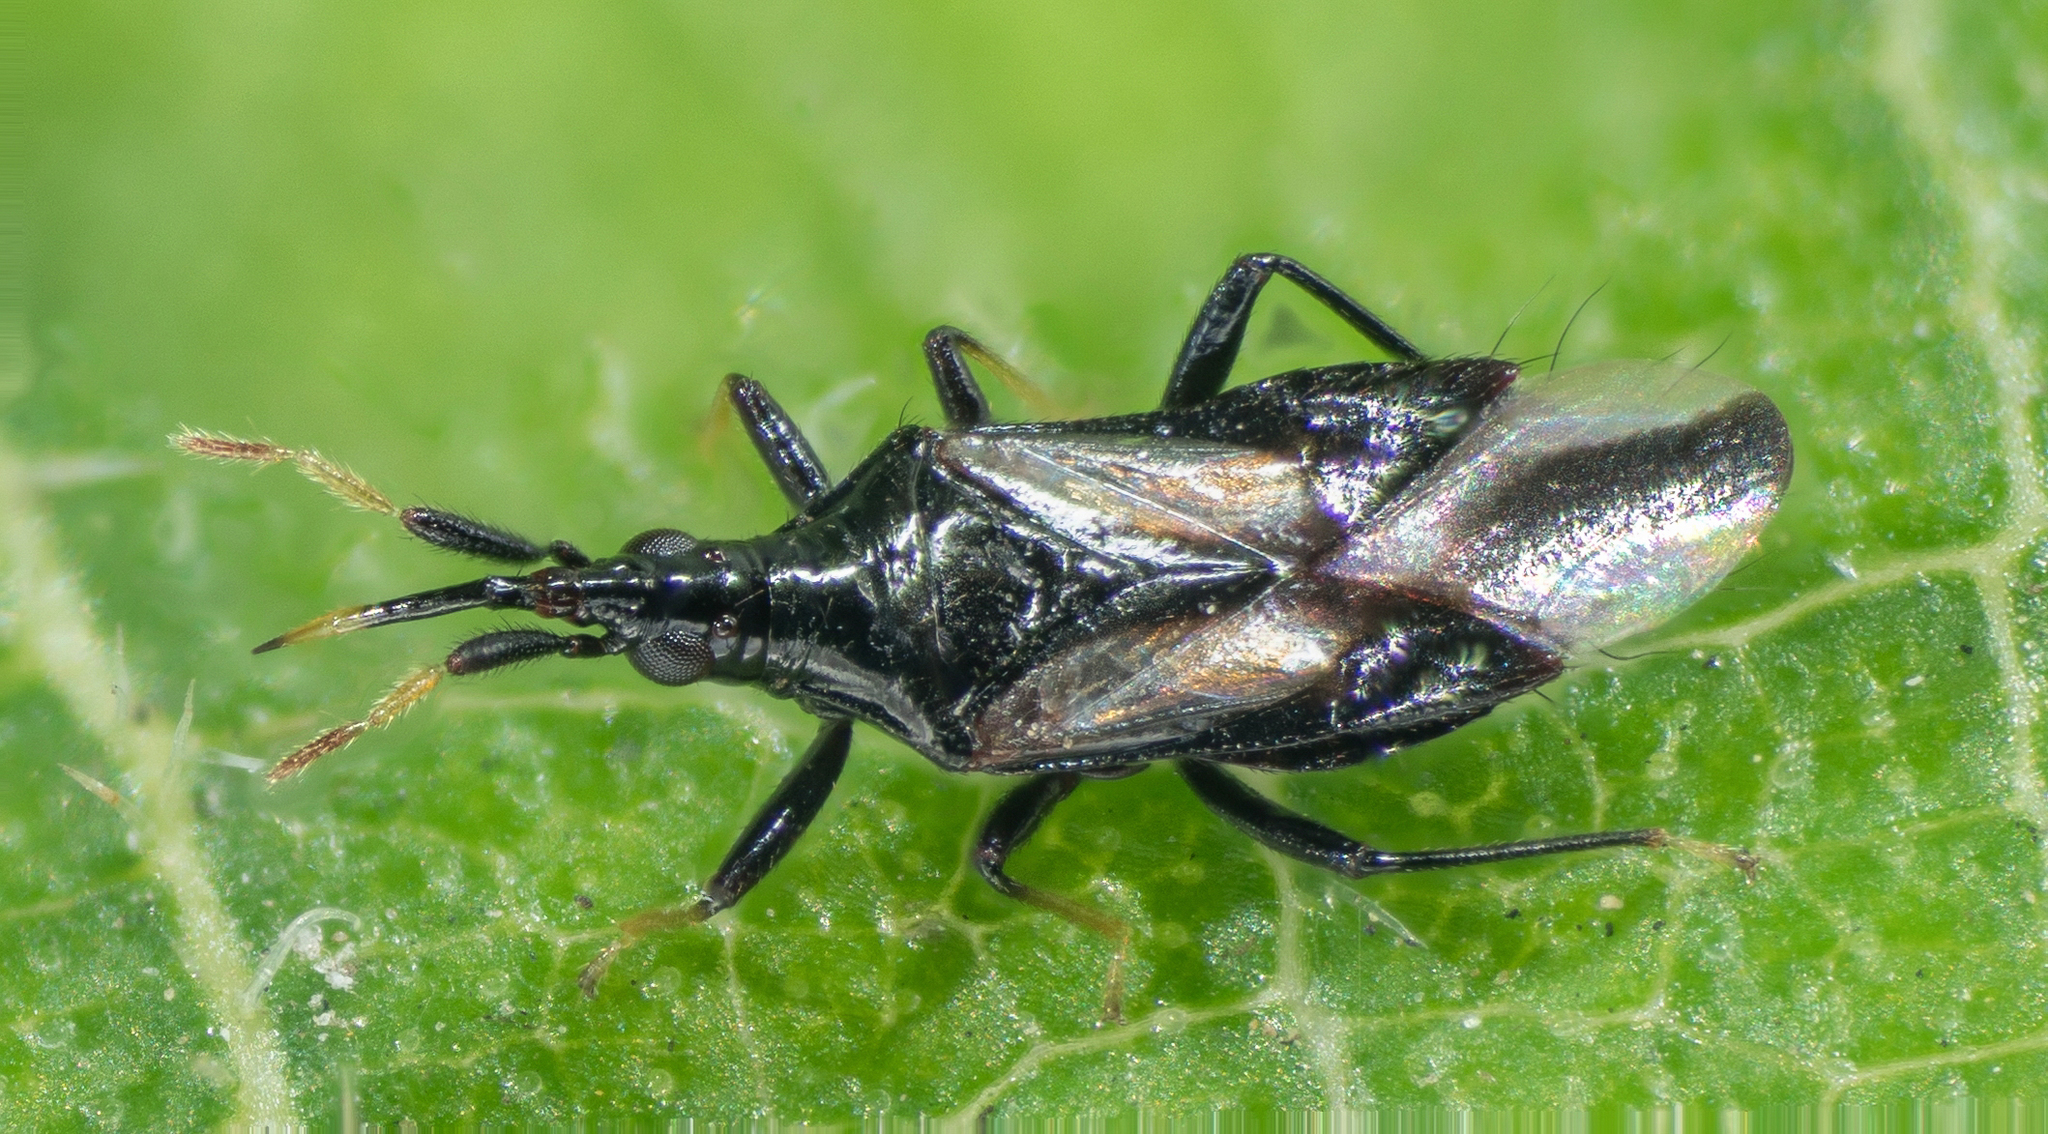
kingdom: Animalia
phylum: Arthropoda
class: Insecta
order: Hemiptera
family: Anthocoridae
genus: Montandoniola
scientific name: Montandoniola confusa
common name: Minute pirate bug
